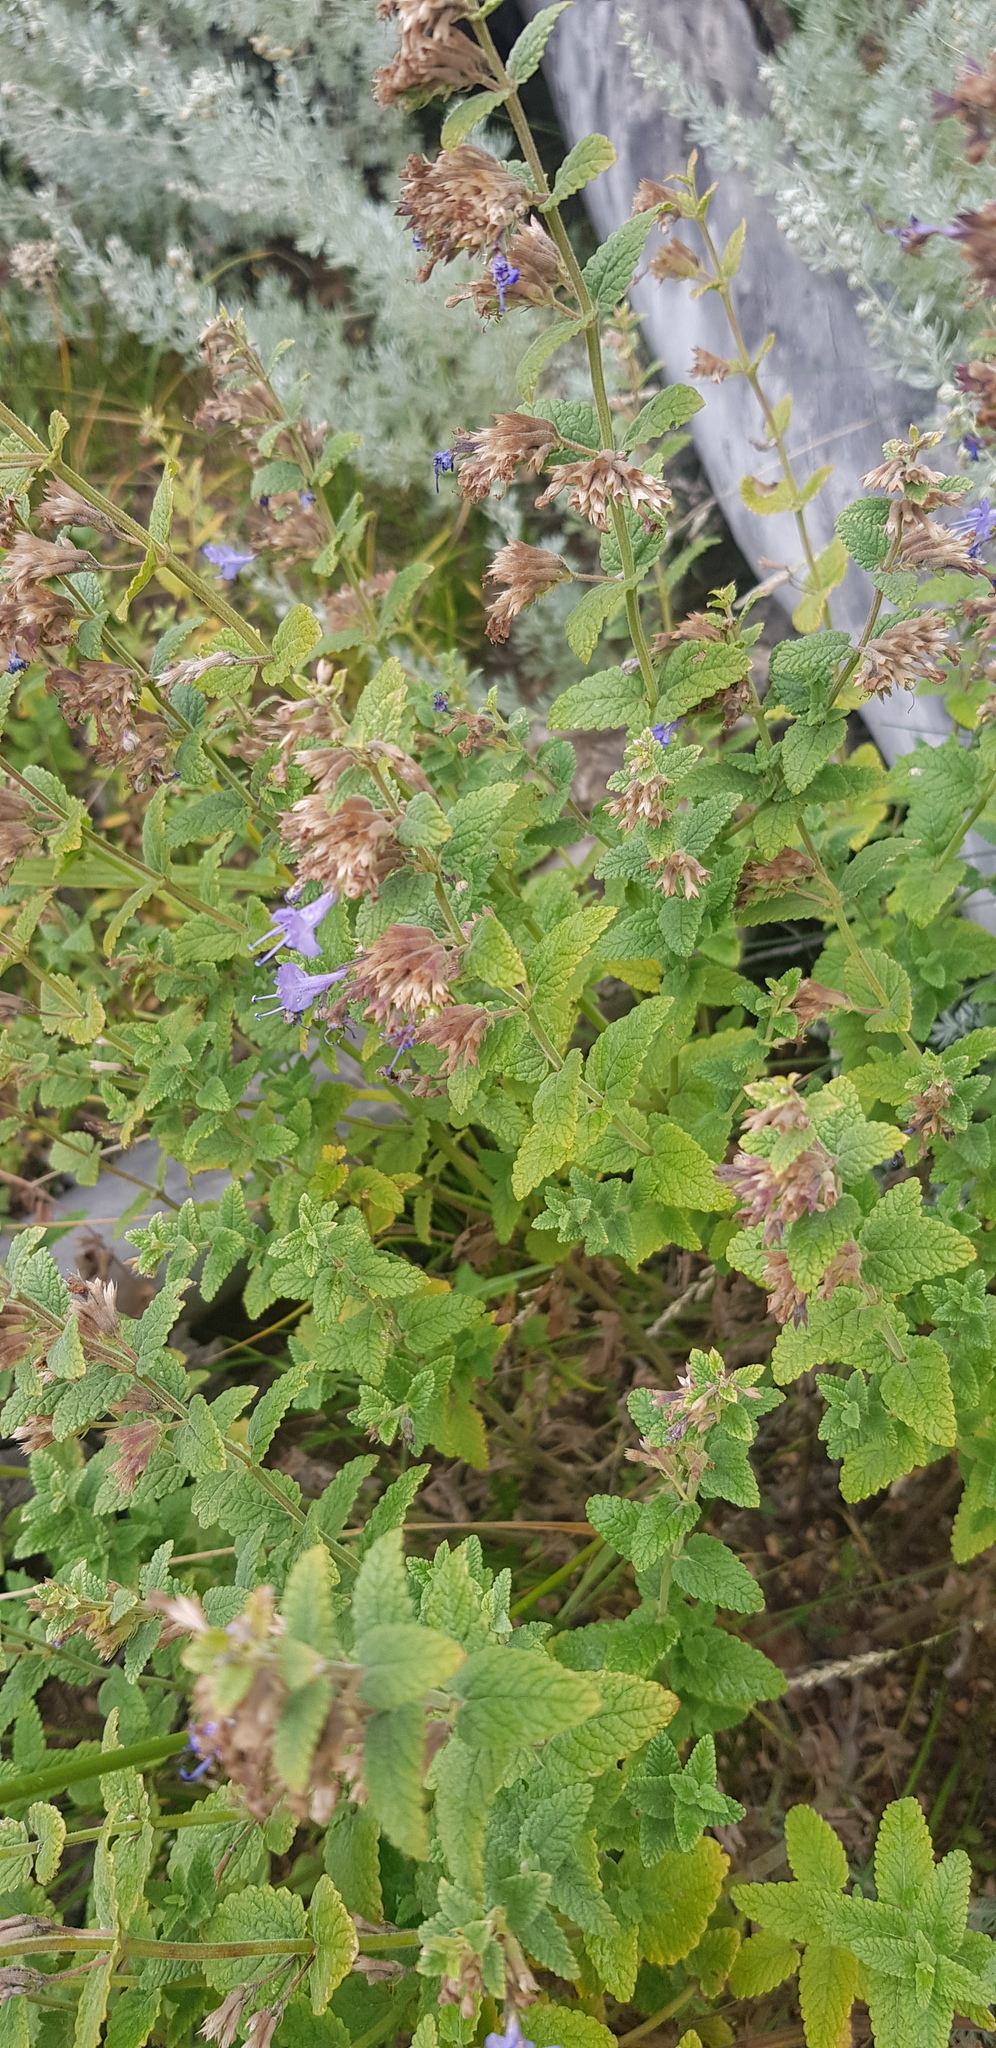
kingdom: Plantae
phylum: Tracheophyta
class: Magnoliopsida
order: Lamiales
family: Lamiaceae
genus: Nepeta
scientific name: Nepeta lophanthus
